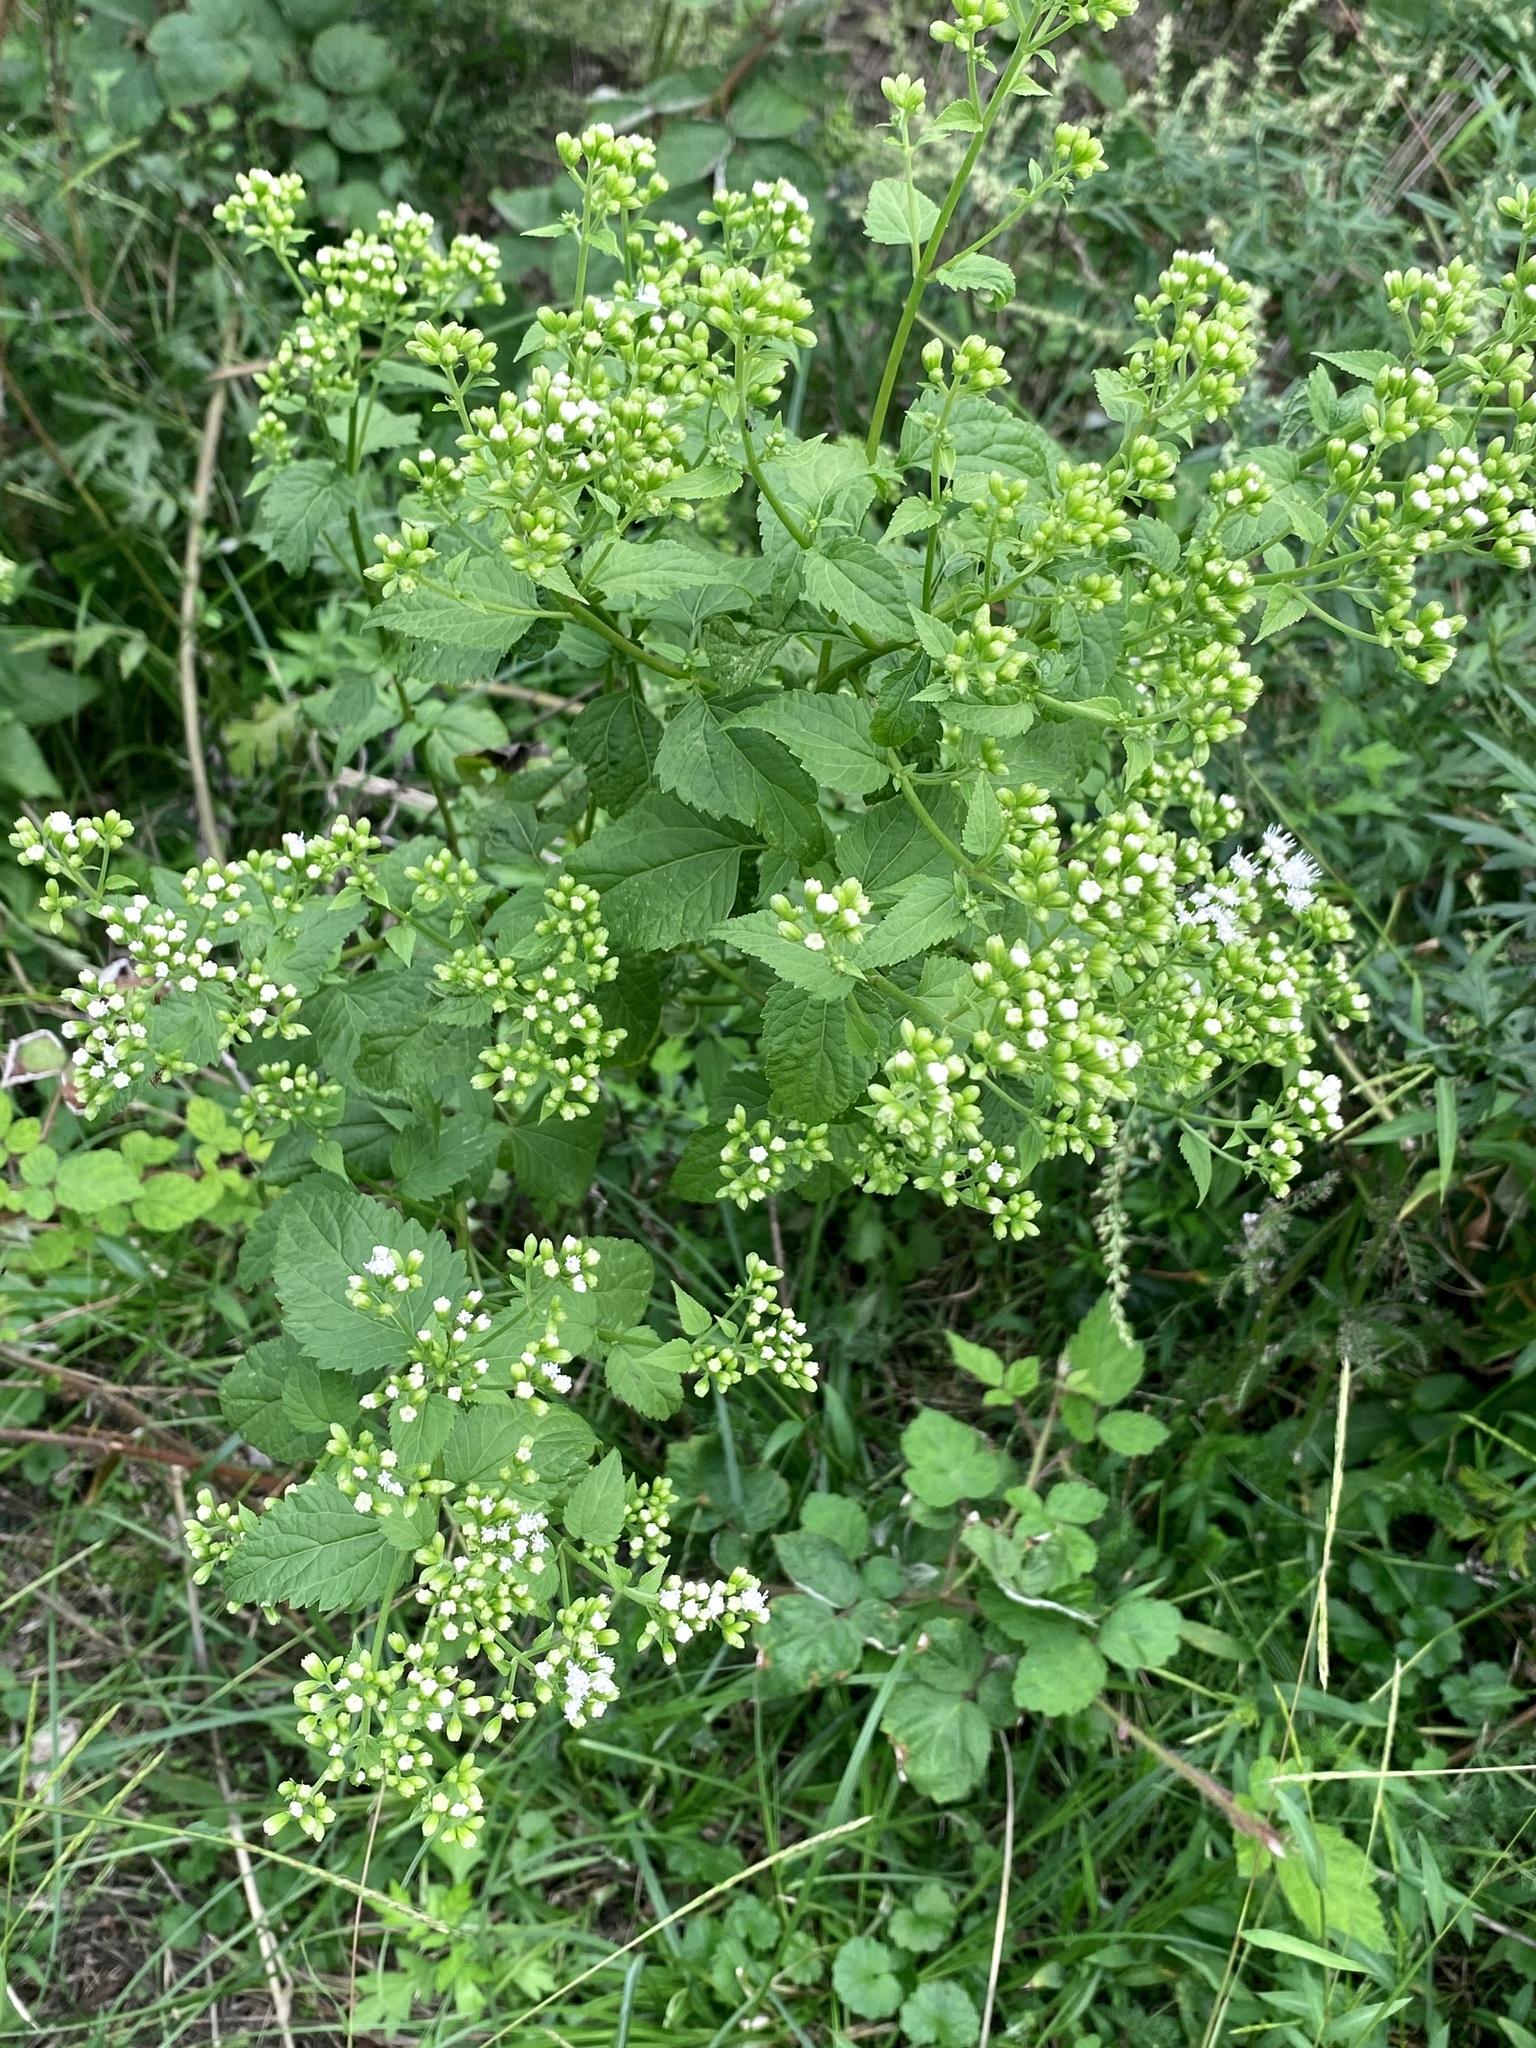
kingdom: Plantae
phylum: Tracheophyta
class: Magnoliopsida
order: Asterales
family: Asteraceae
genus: Ageratina
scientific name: Ageratina altissima
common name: White snakeroot
